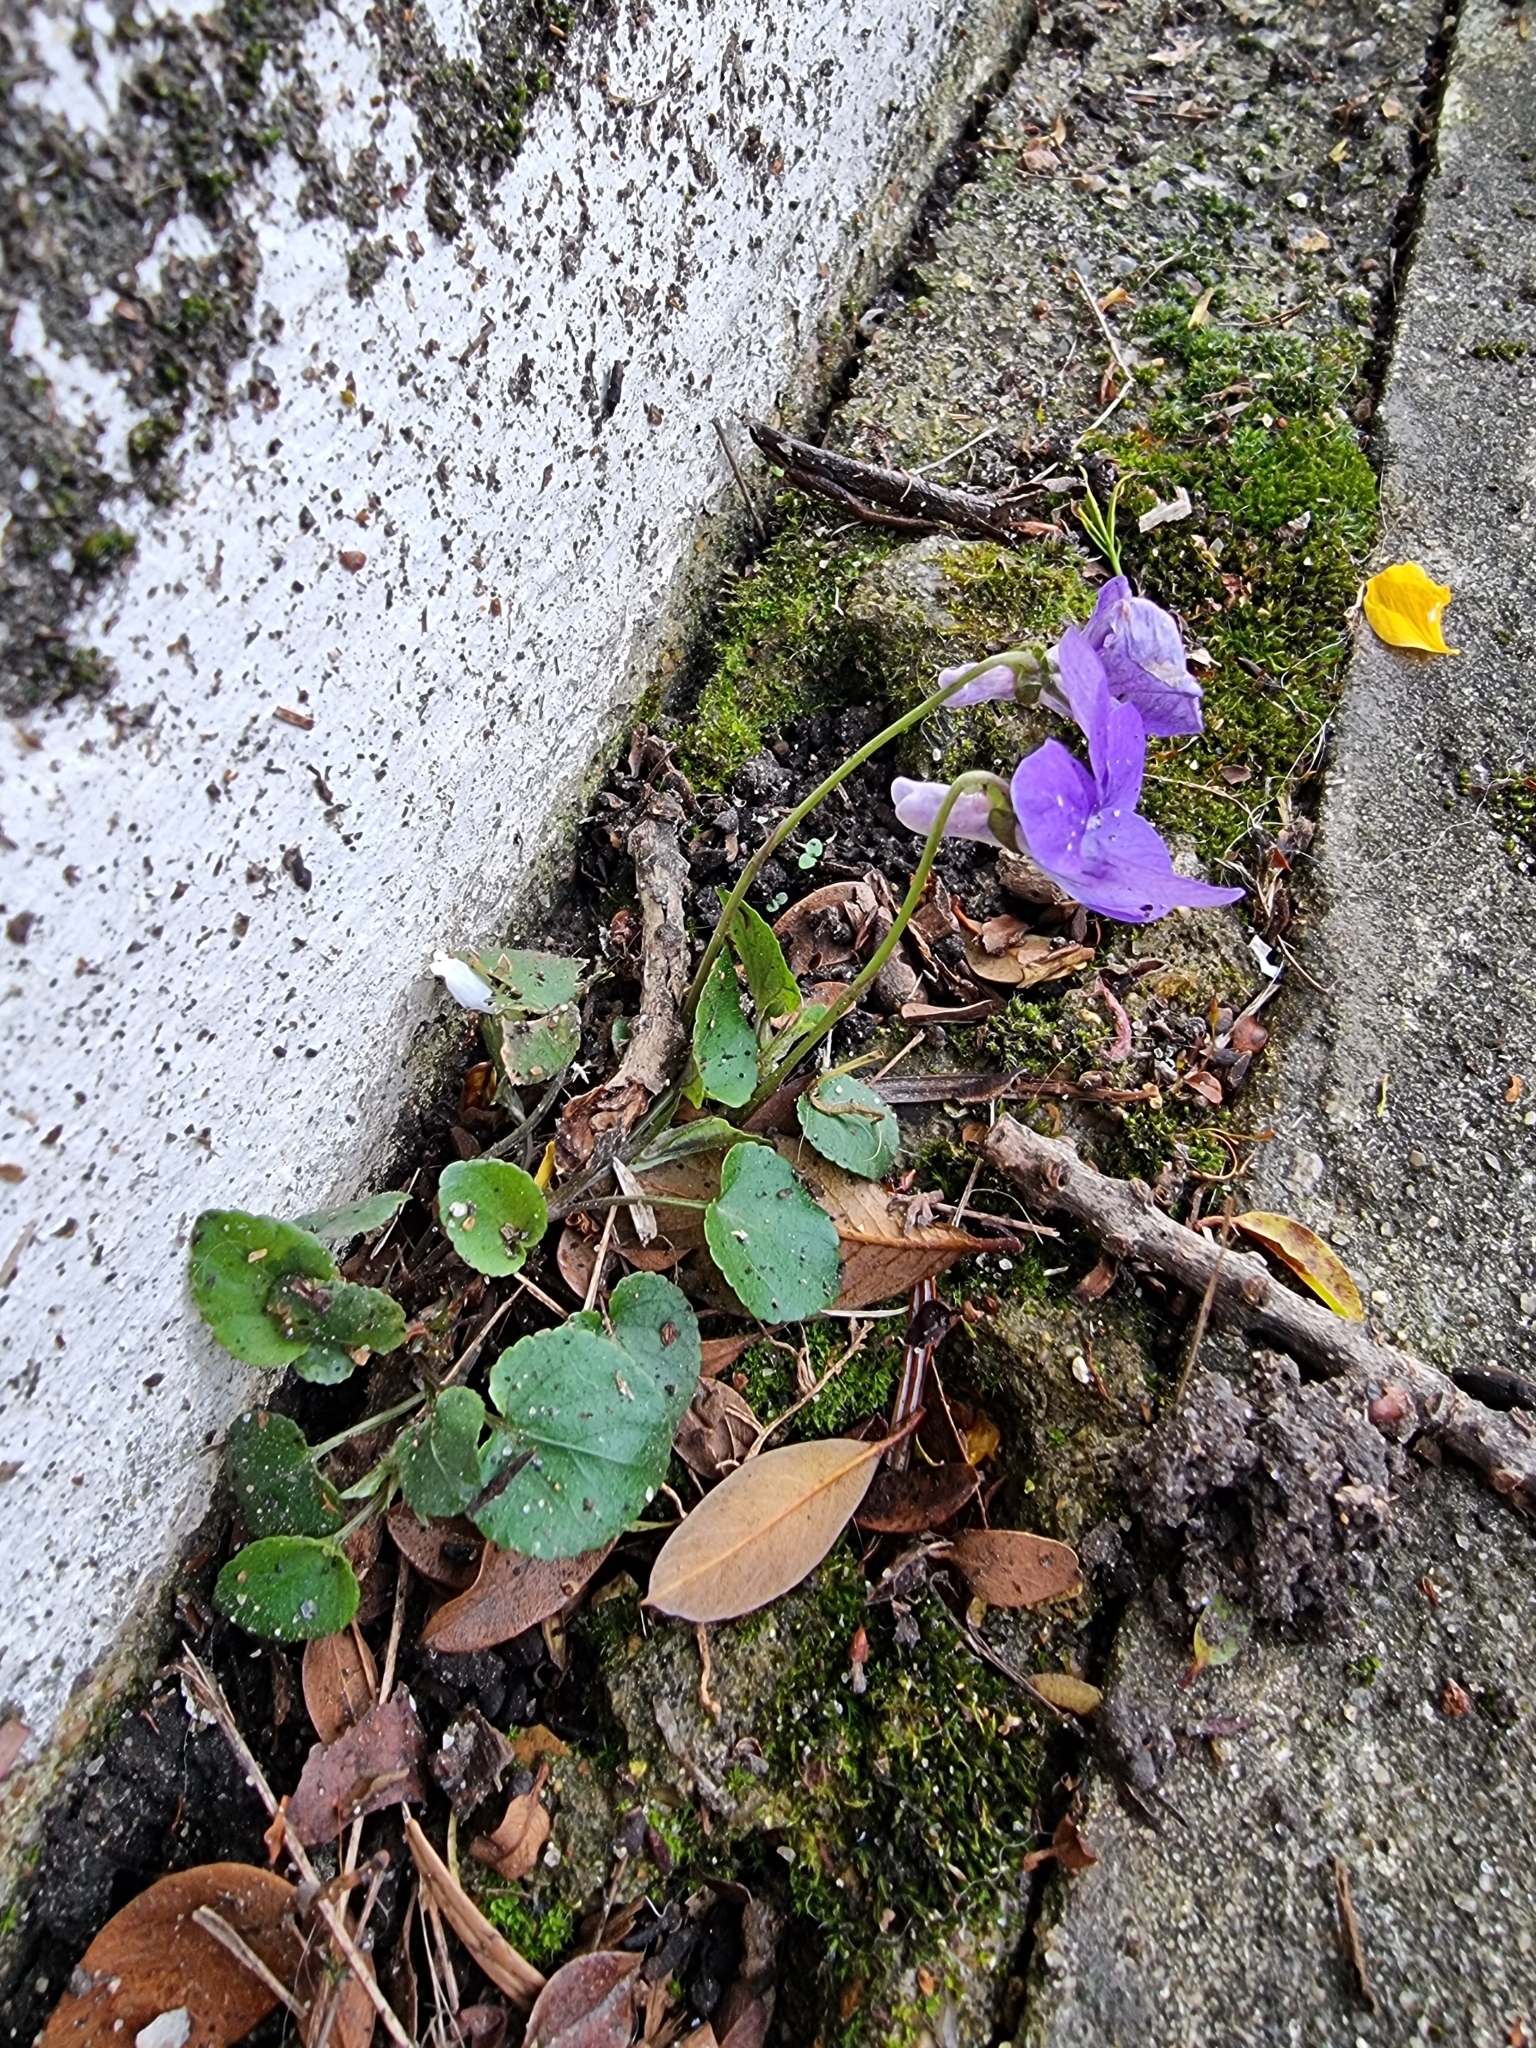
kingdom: Plantae
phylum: Tracheophyta
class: Magnoliopsida
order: Malpighiales
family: Violaceae
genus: Viola
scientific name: Viola riviniana
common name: Common dog-violet
